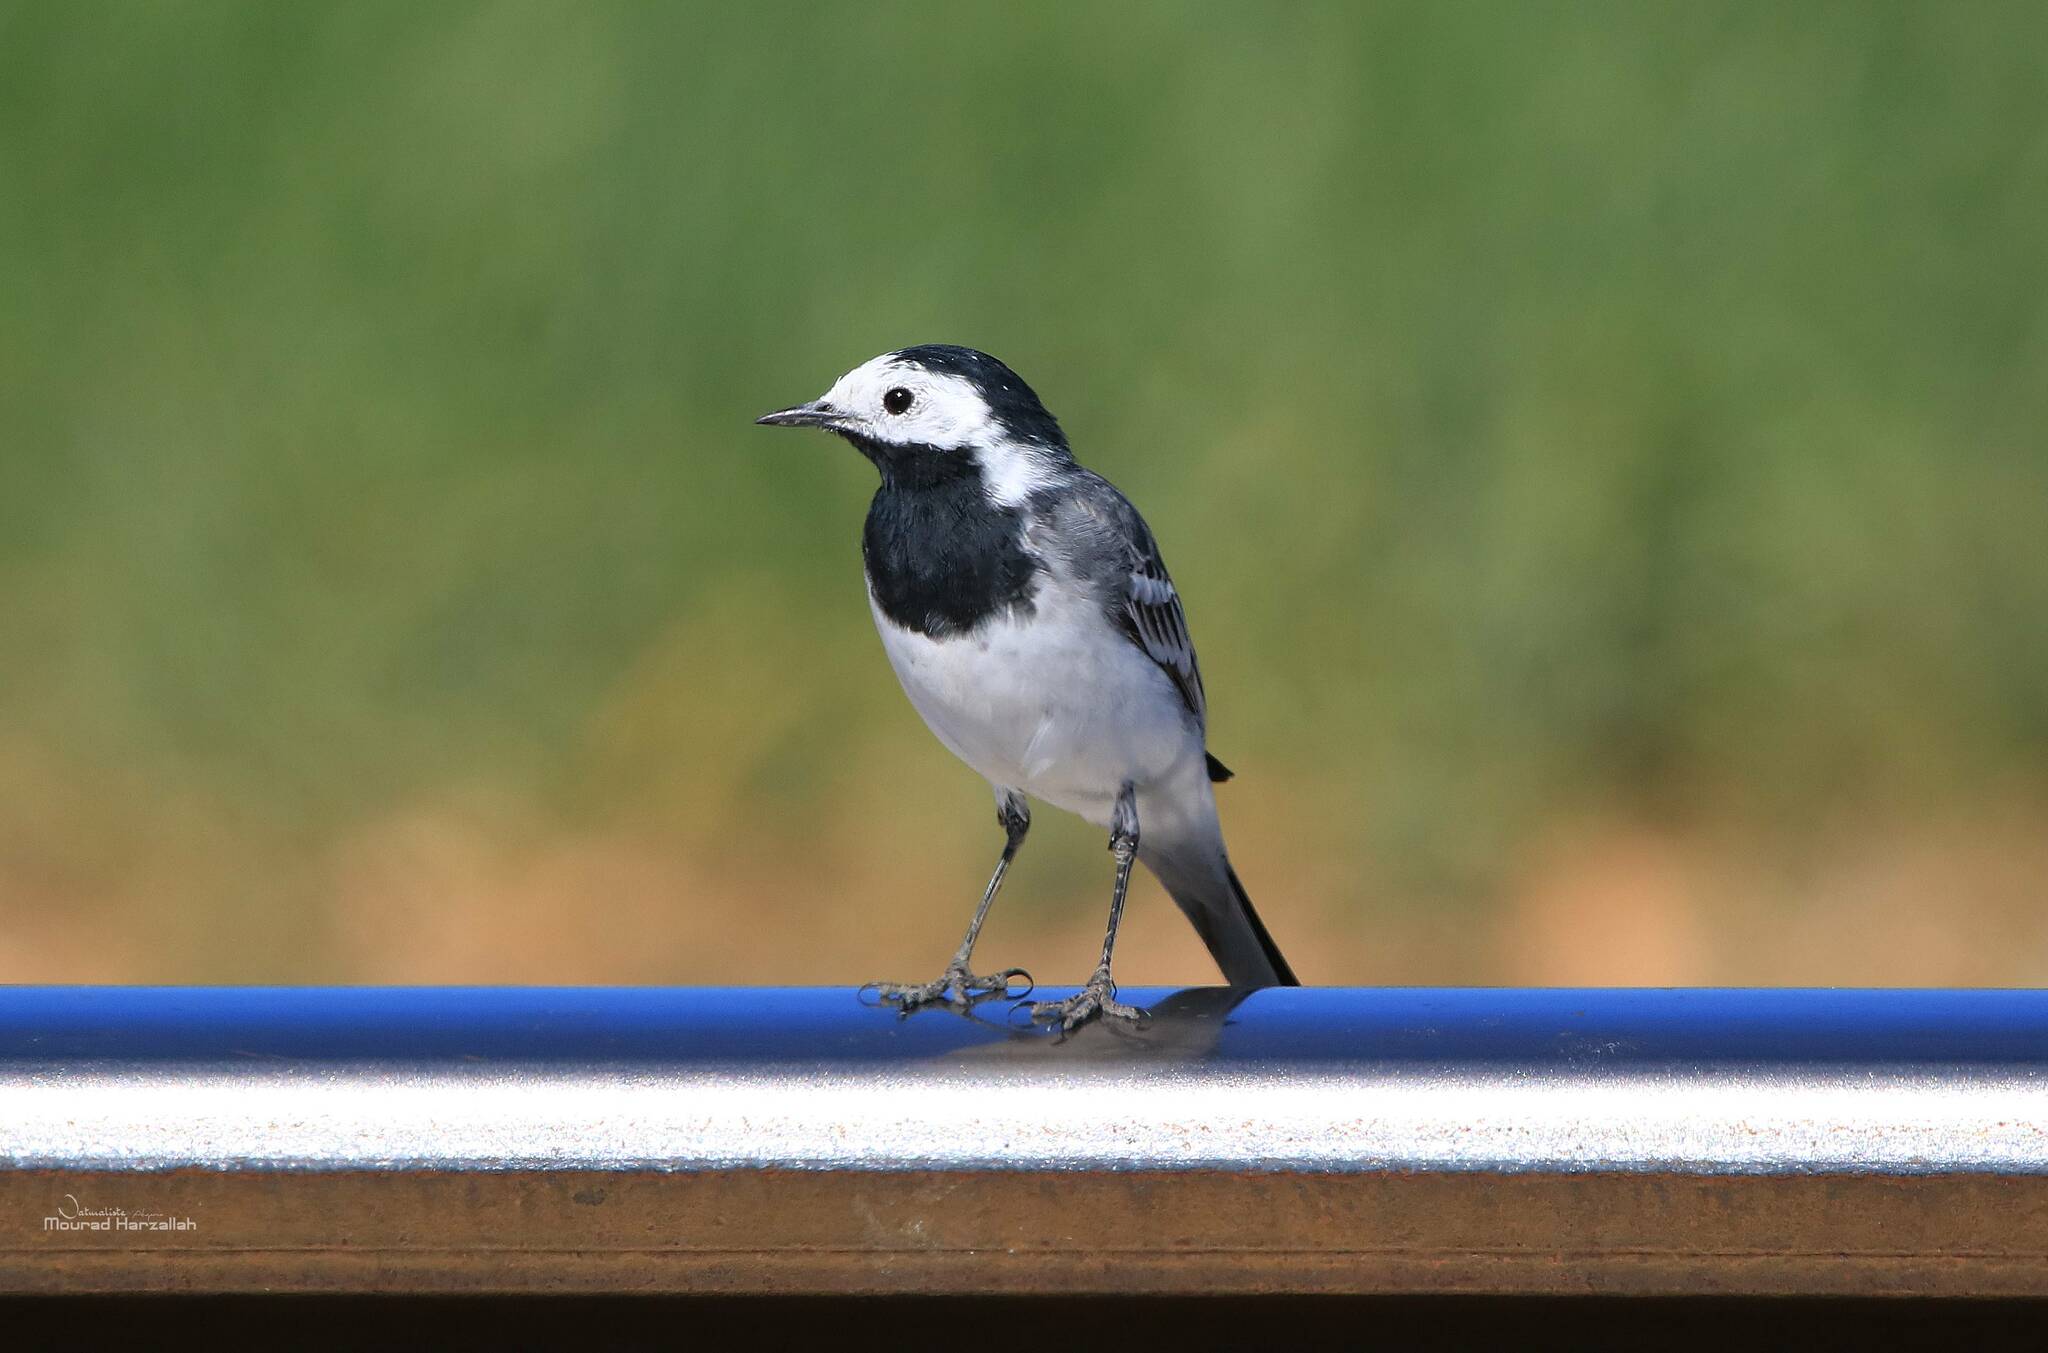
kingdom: Animalia
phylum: Chordata
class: Aves
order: Passeriformes
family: Motacillidae
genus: Motacilla
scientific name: Motacilla alba
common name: White wagtail
